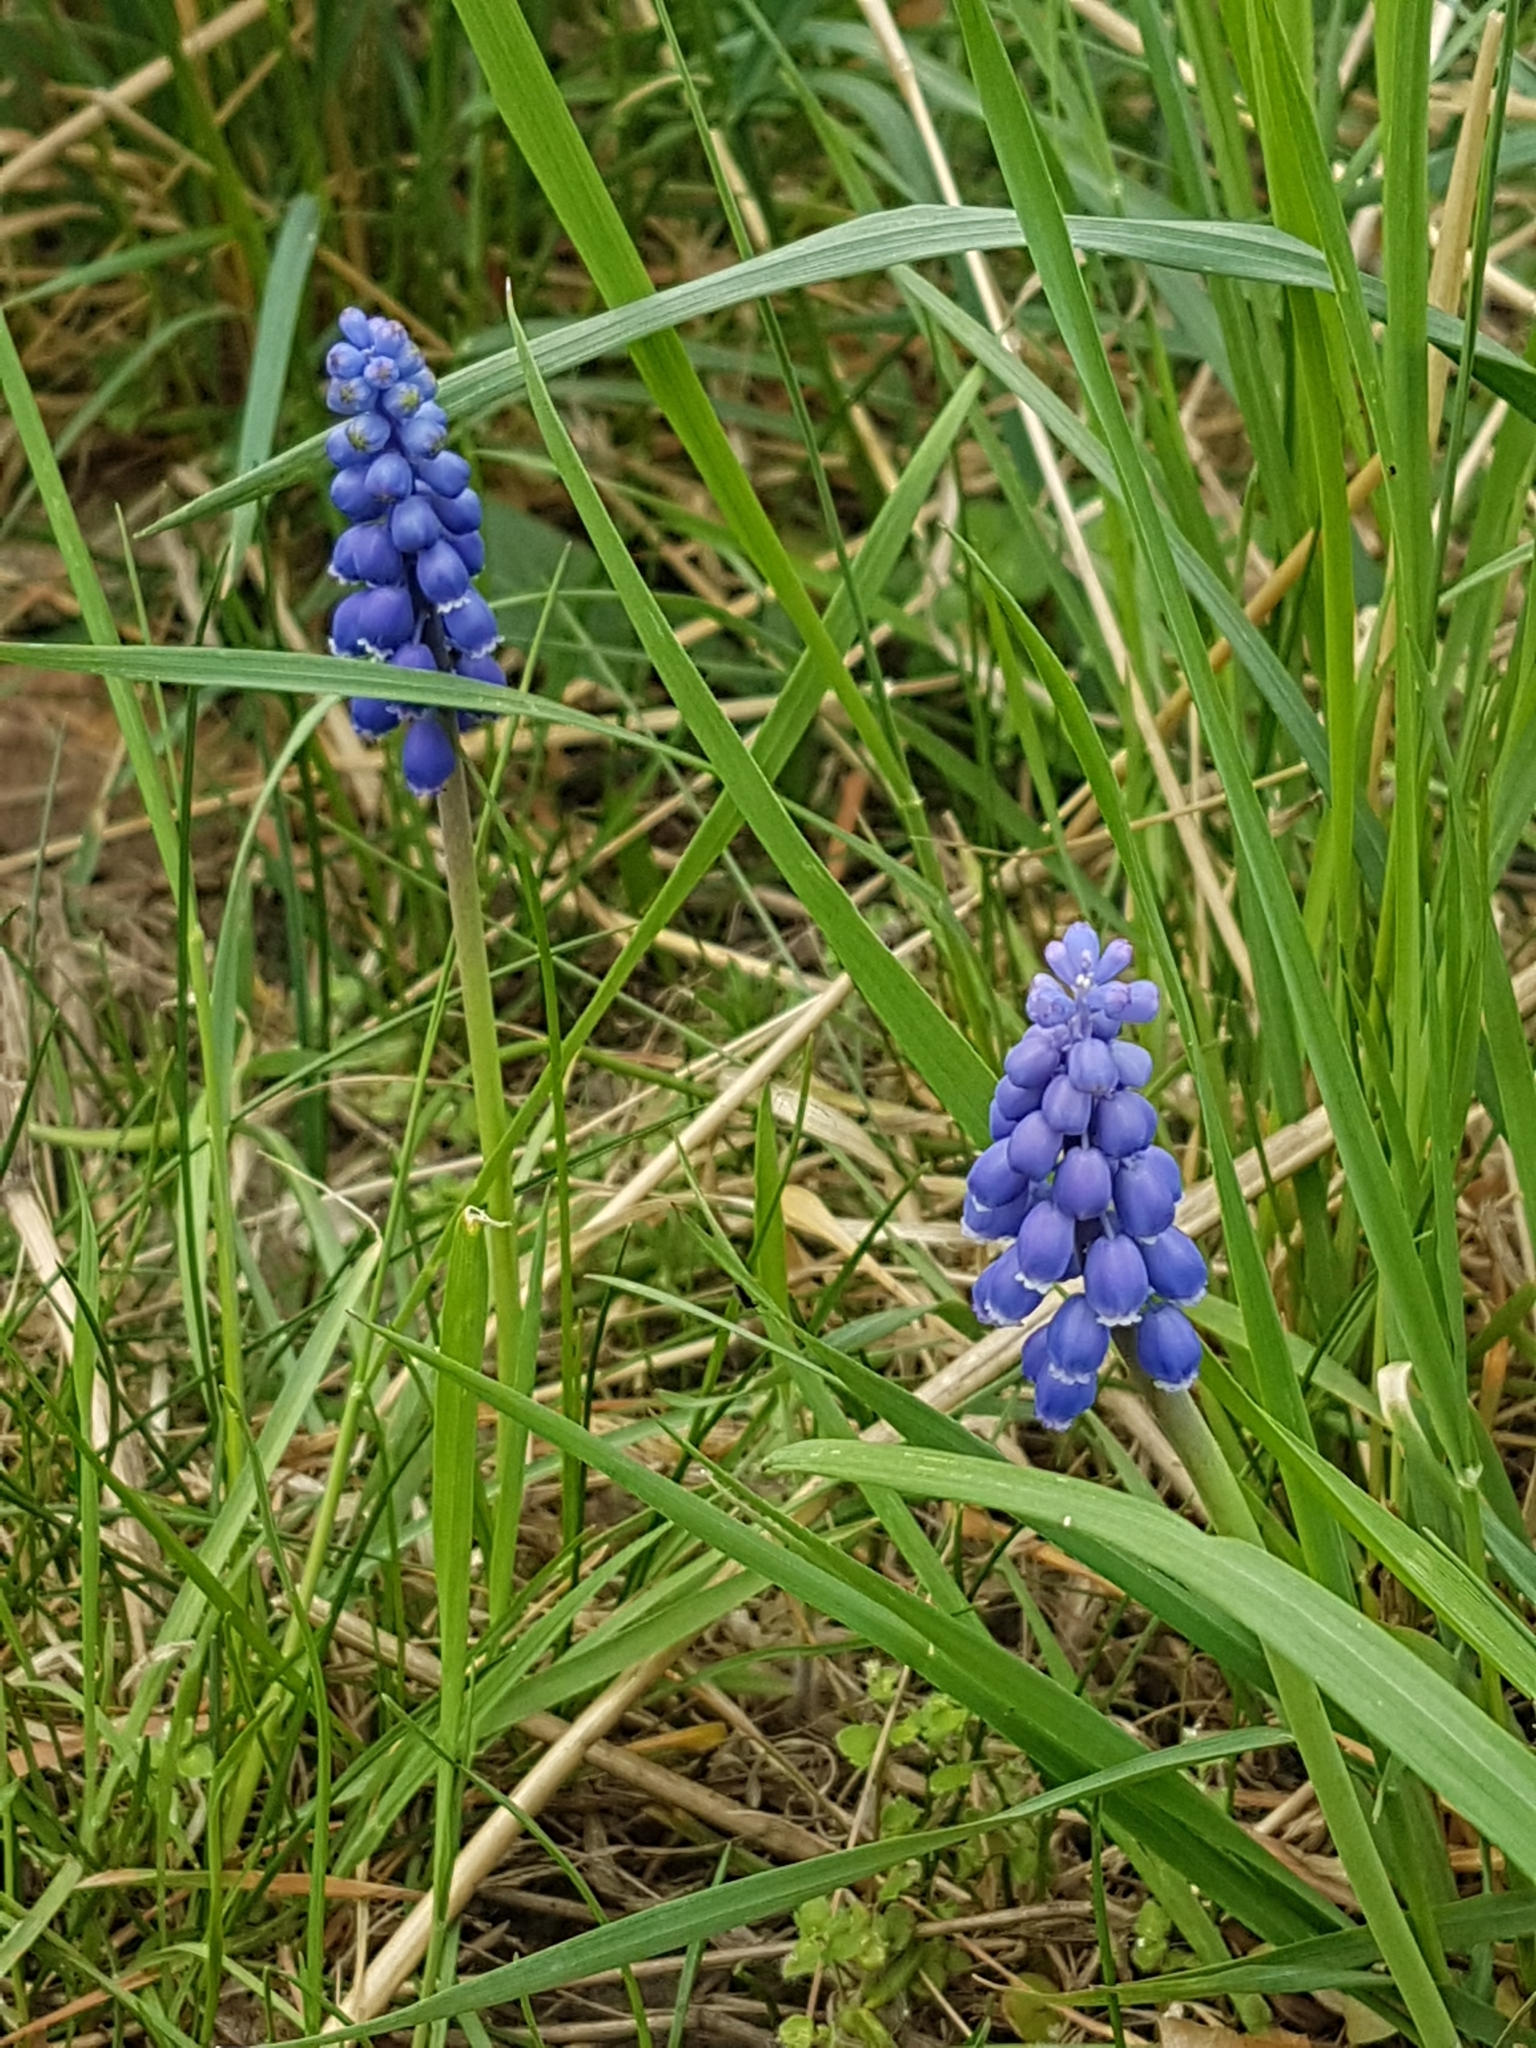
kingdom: Plantae
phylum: Tracheophyta
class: Liliopsida
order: Asparagales
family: Asparagaceae
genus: Muscari
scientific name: Muscari neglectum
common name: Grape-hyacinth
